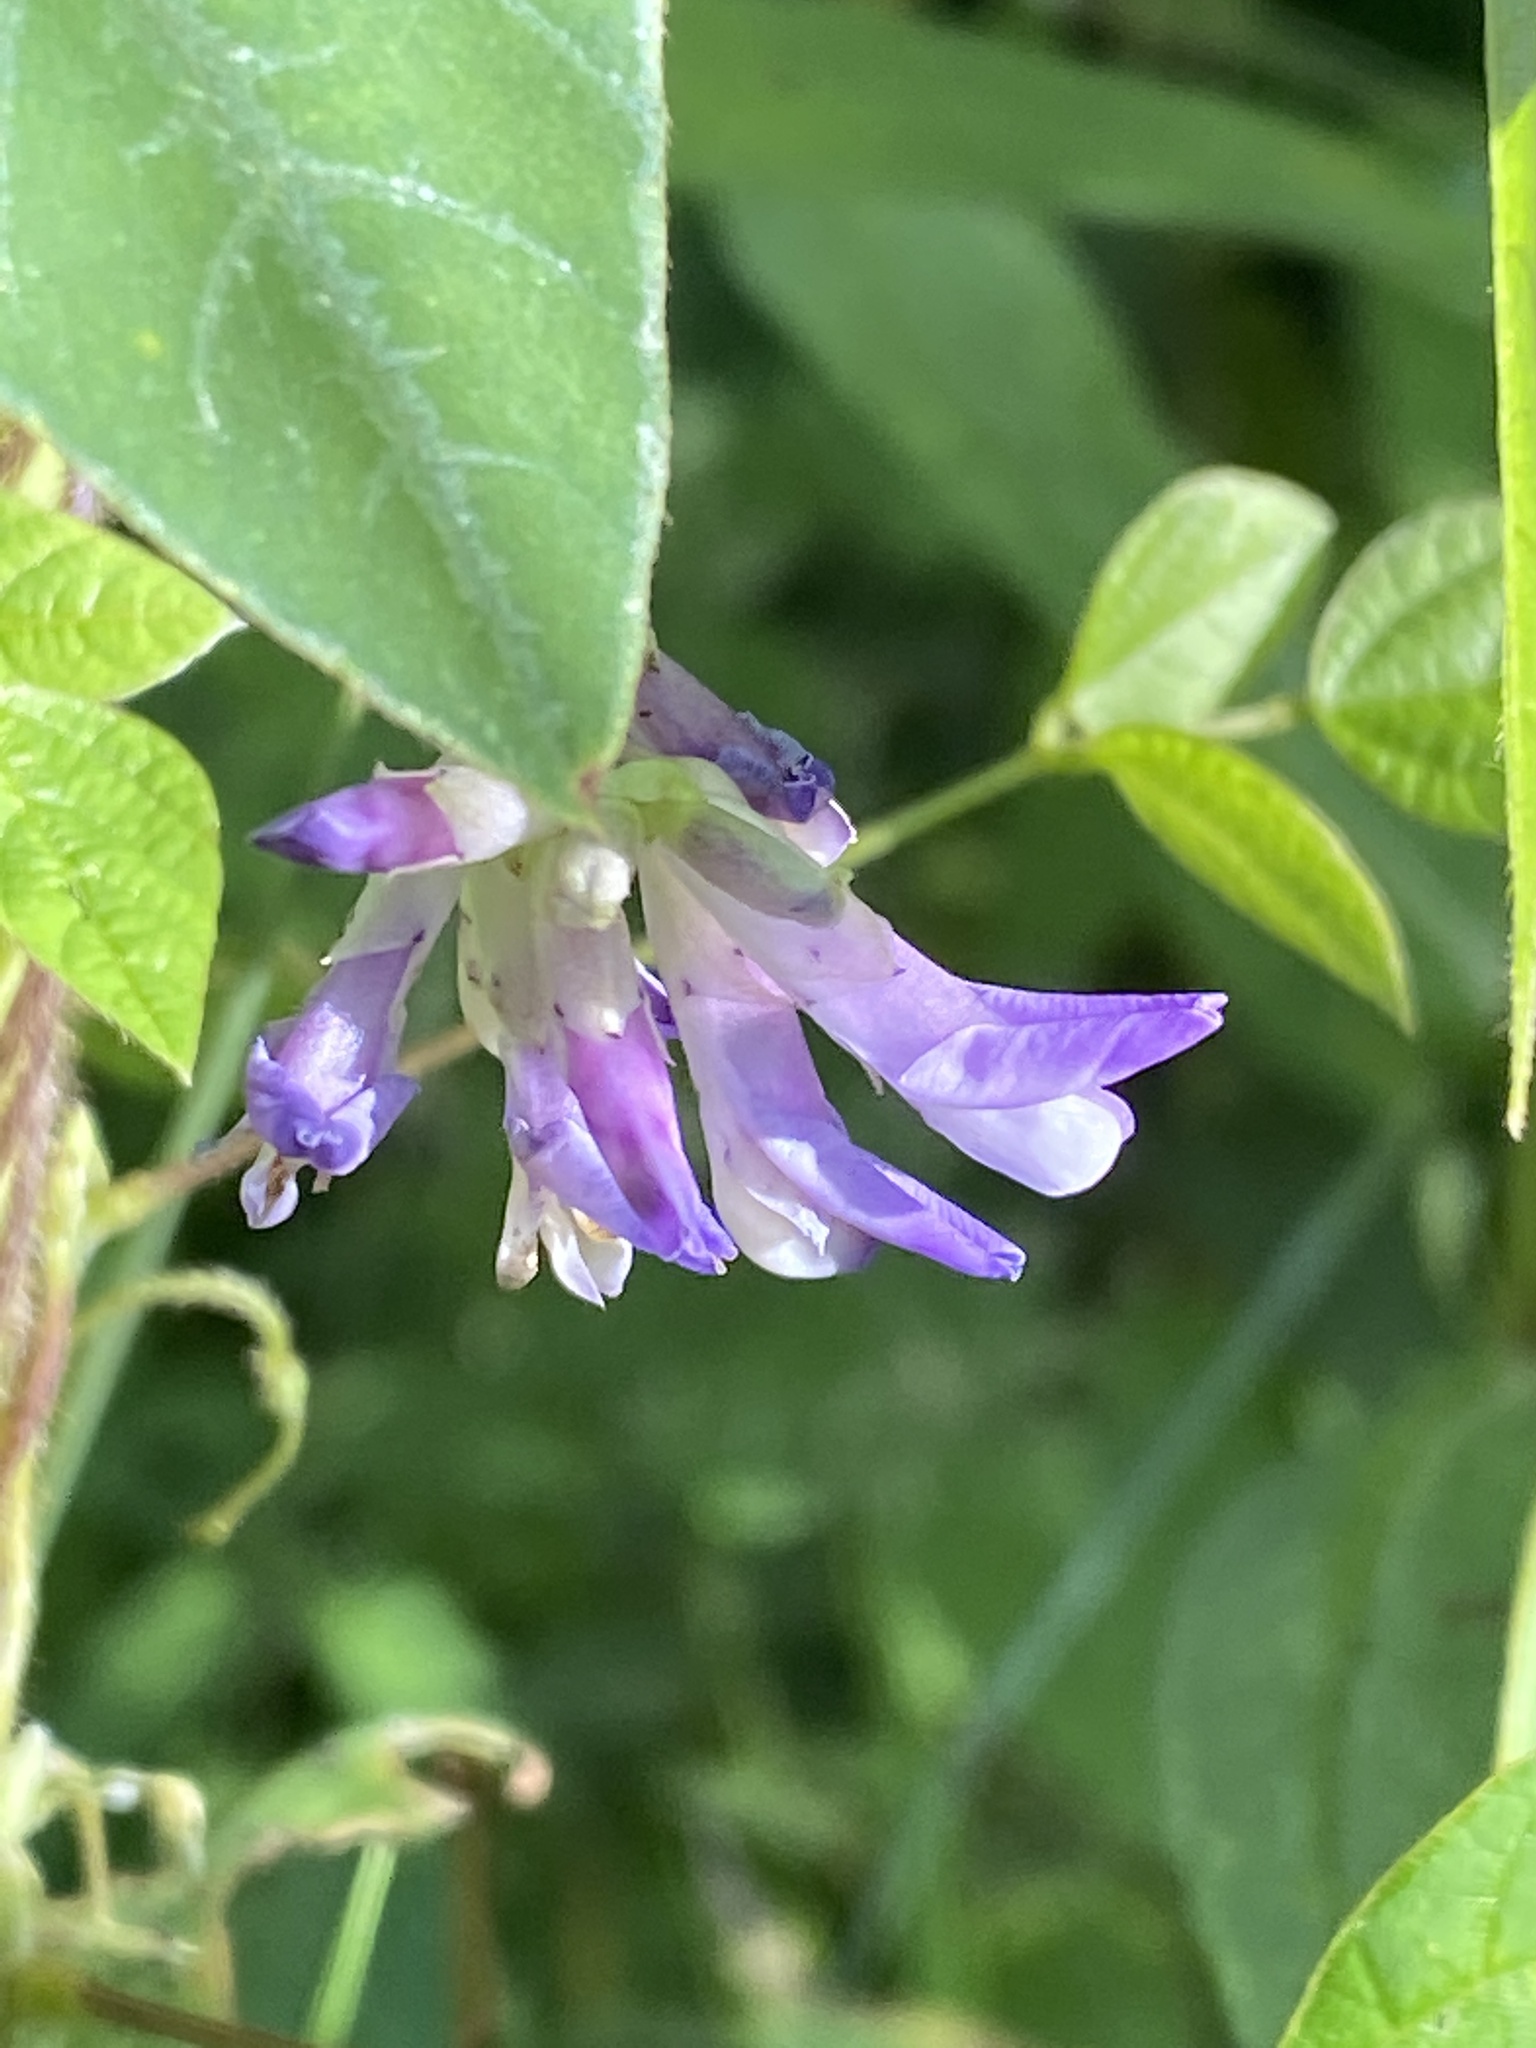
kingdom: Plantae
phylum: Tracheophyta
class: Magnoliopsida
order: Fabales
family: Fabaceae
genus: Amphicarpaea
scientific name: Amphicarpaea bracteata
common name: American hog peanut
